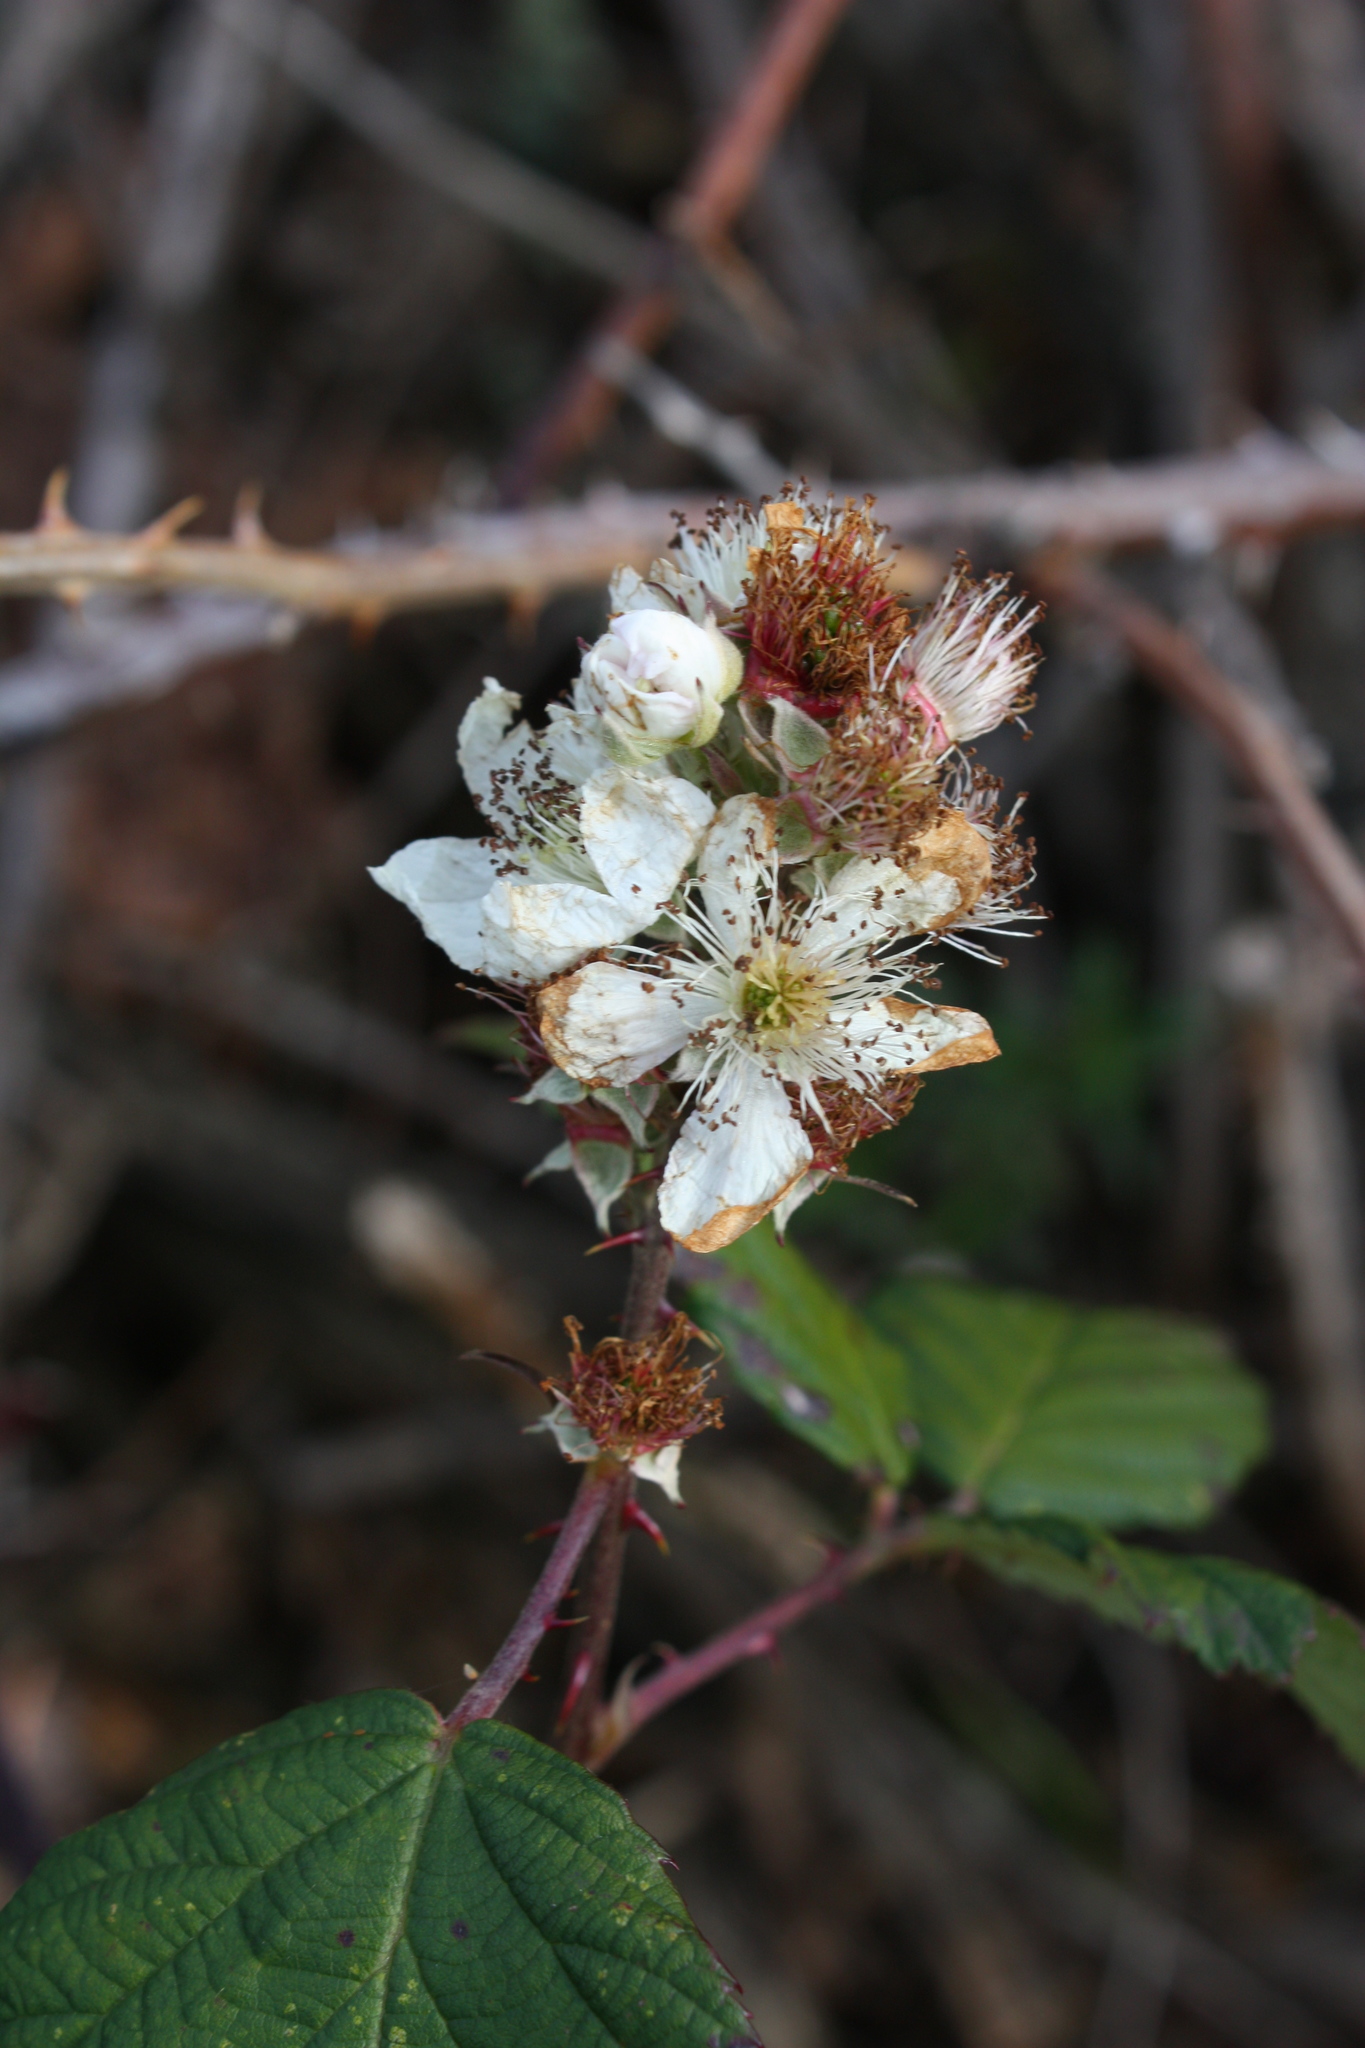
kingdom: Plantae
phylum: Tracheophyta
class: Magnoliopsida
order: Rosales
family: Rosaceae
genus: Rubus
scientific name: Rubus ursinus
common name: Pacific blackberry
